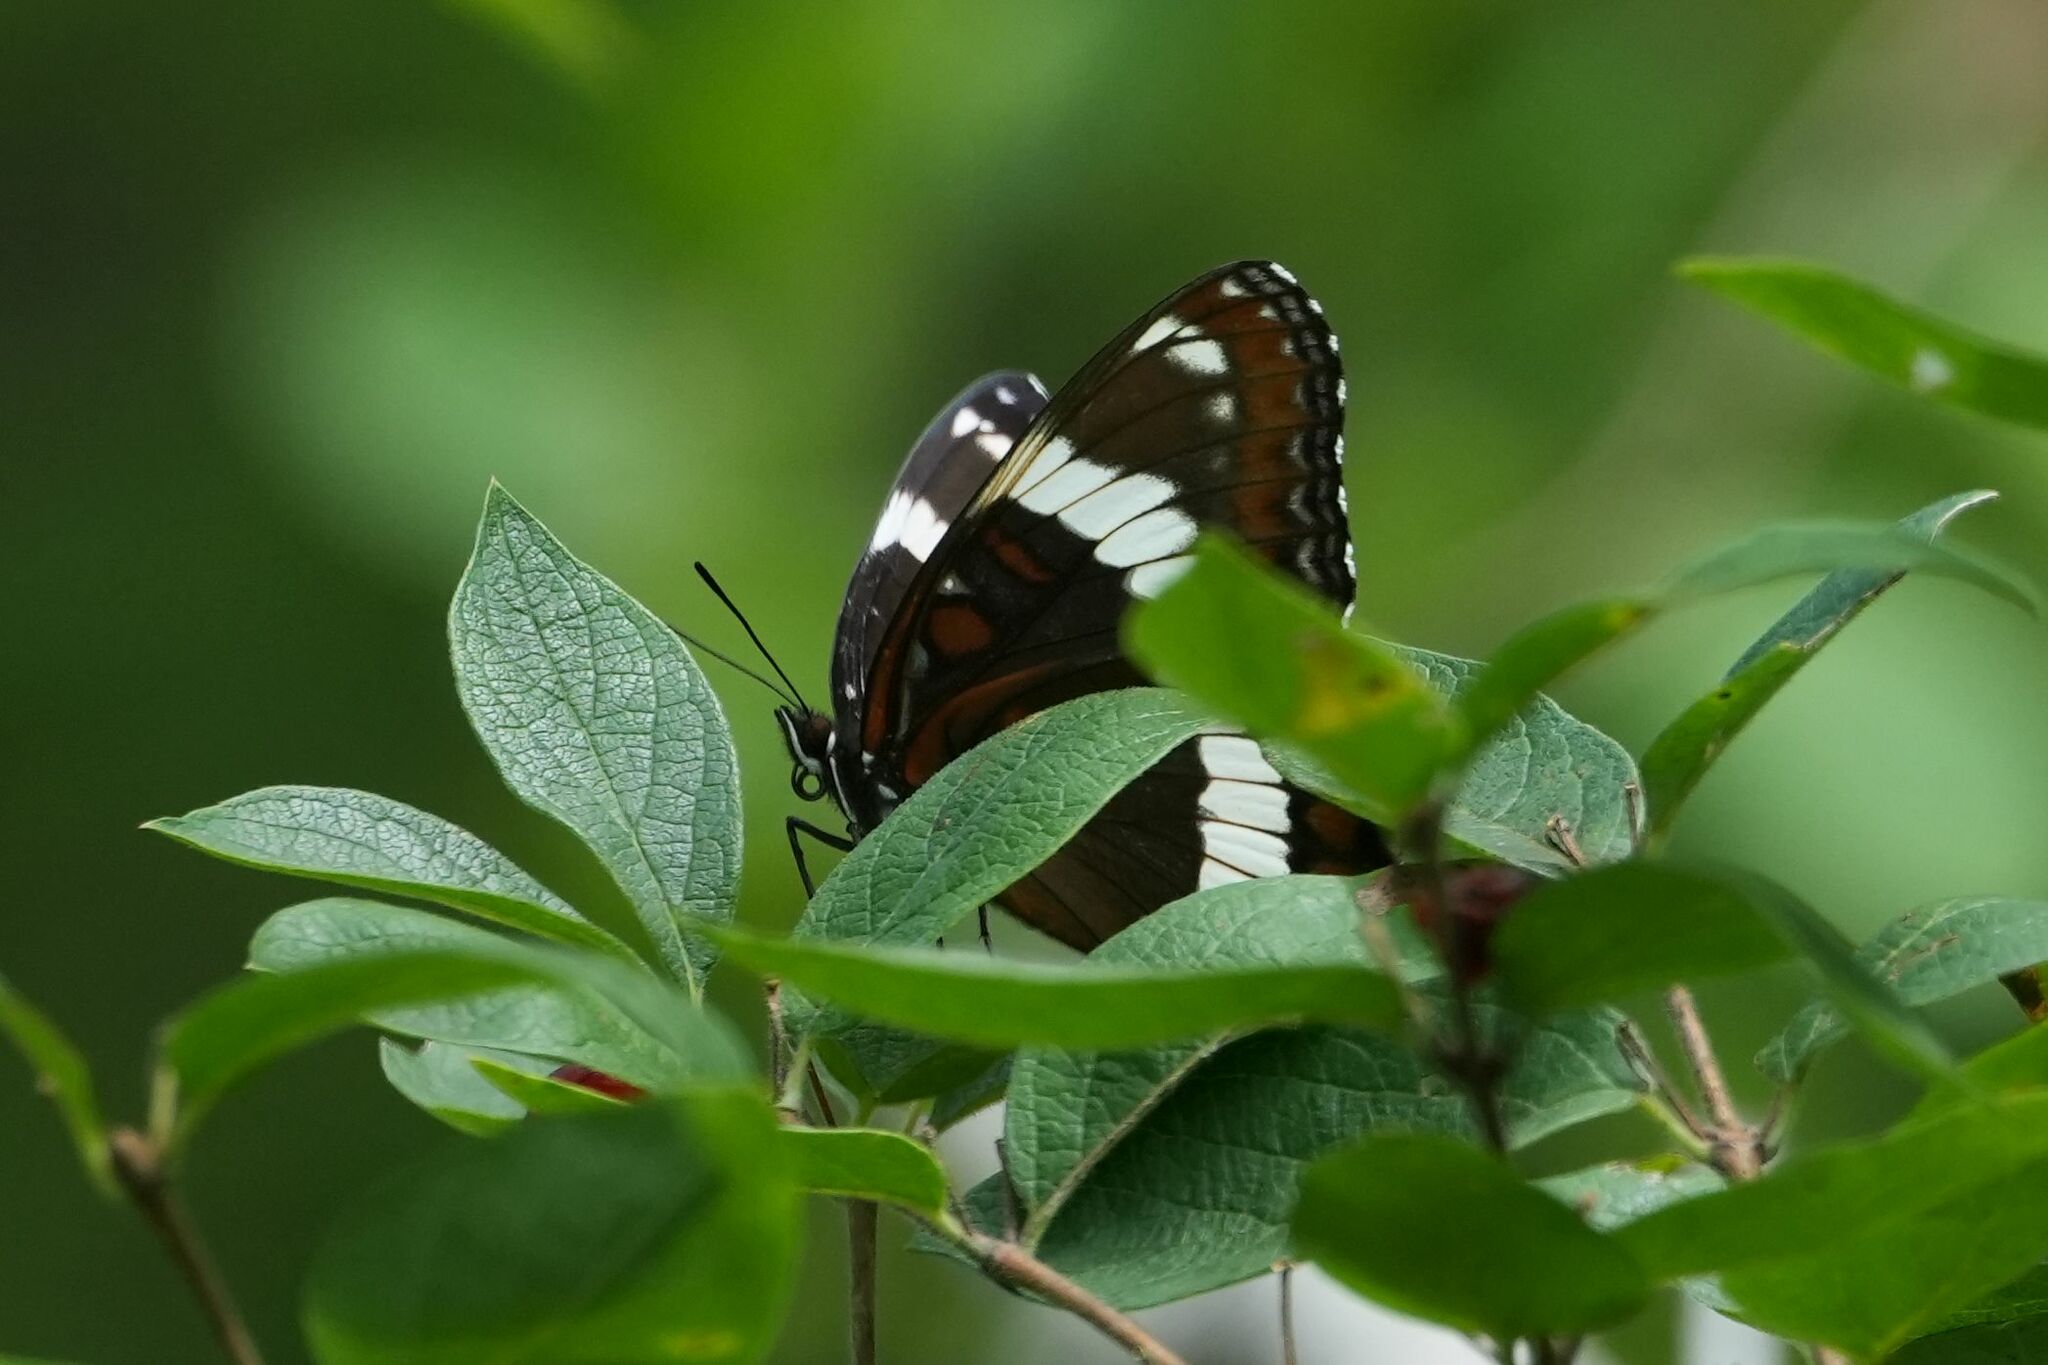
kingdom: Animalia
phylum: Arthropoda
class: Insecta
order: Lepidoptera
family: Nymphalidae
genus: Limenitis
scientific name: Limenitis arthemis
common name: Red-spotted admiral
